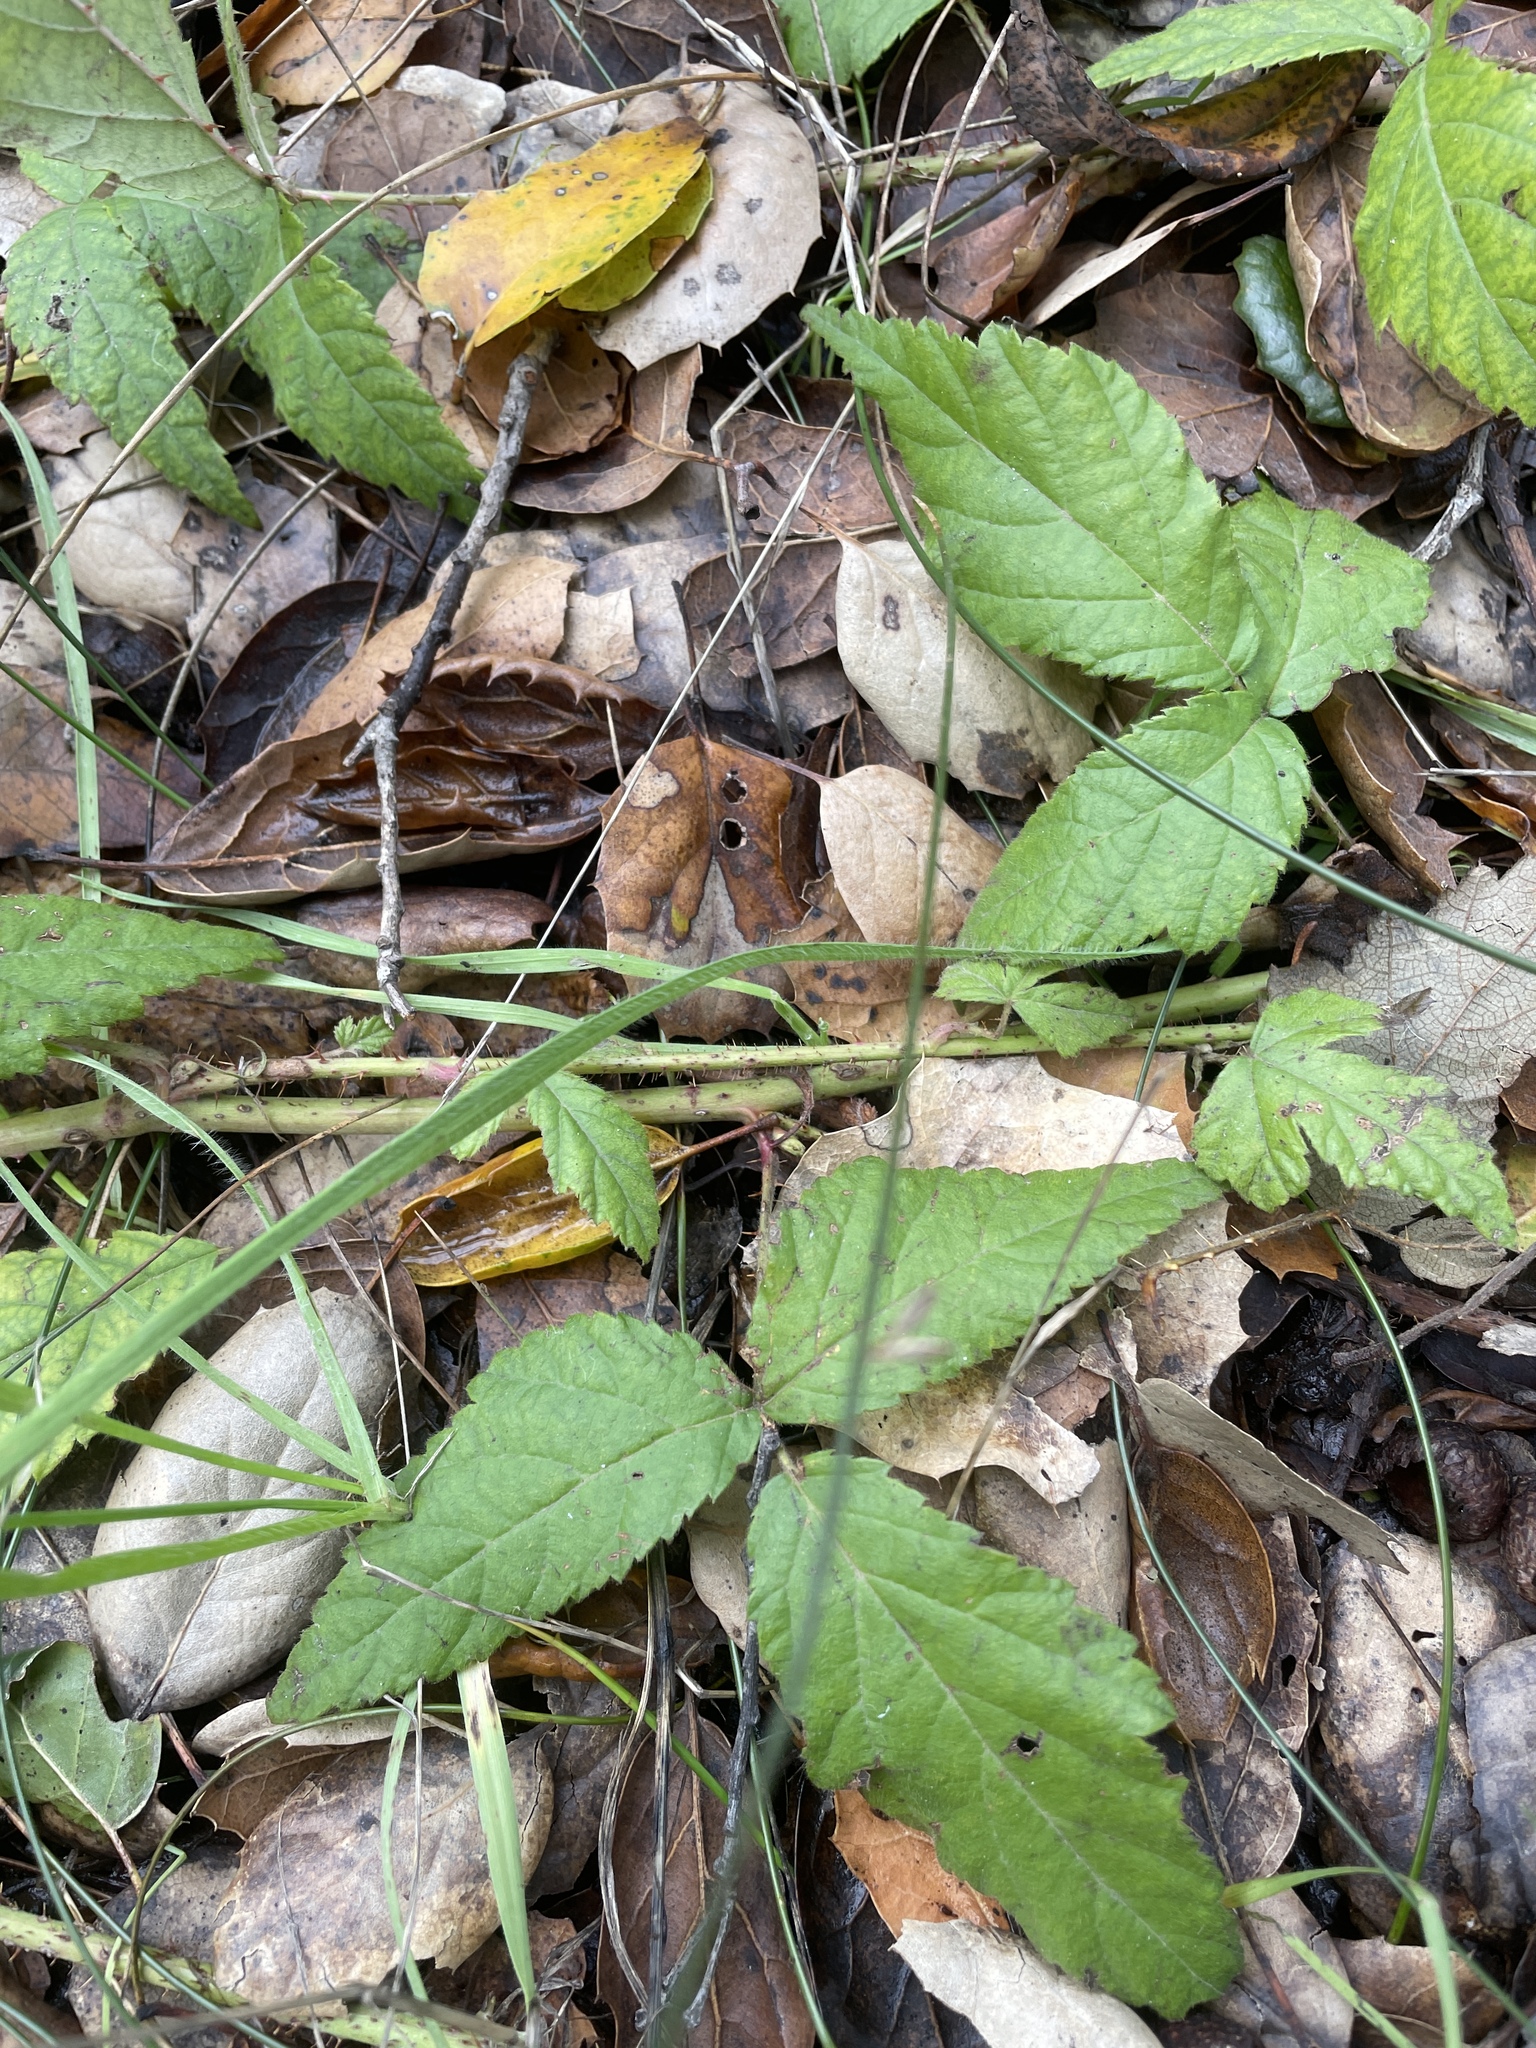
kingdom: Plantae
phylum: Tracheophyta
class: Magnoliopsida
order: Rosales
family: Rosaceae
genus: Rubus
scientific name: Rubus ursinus
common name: Pacific blackberry
